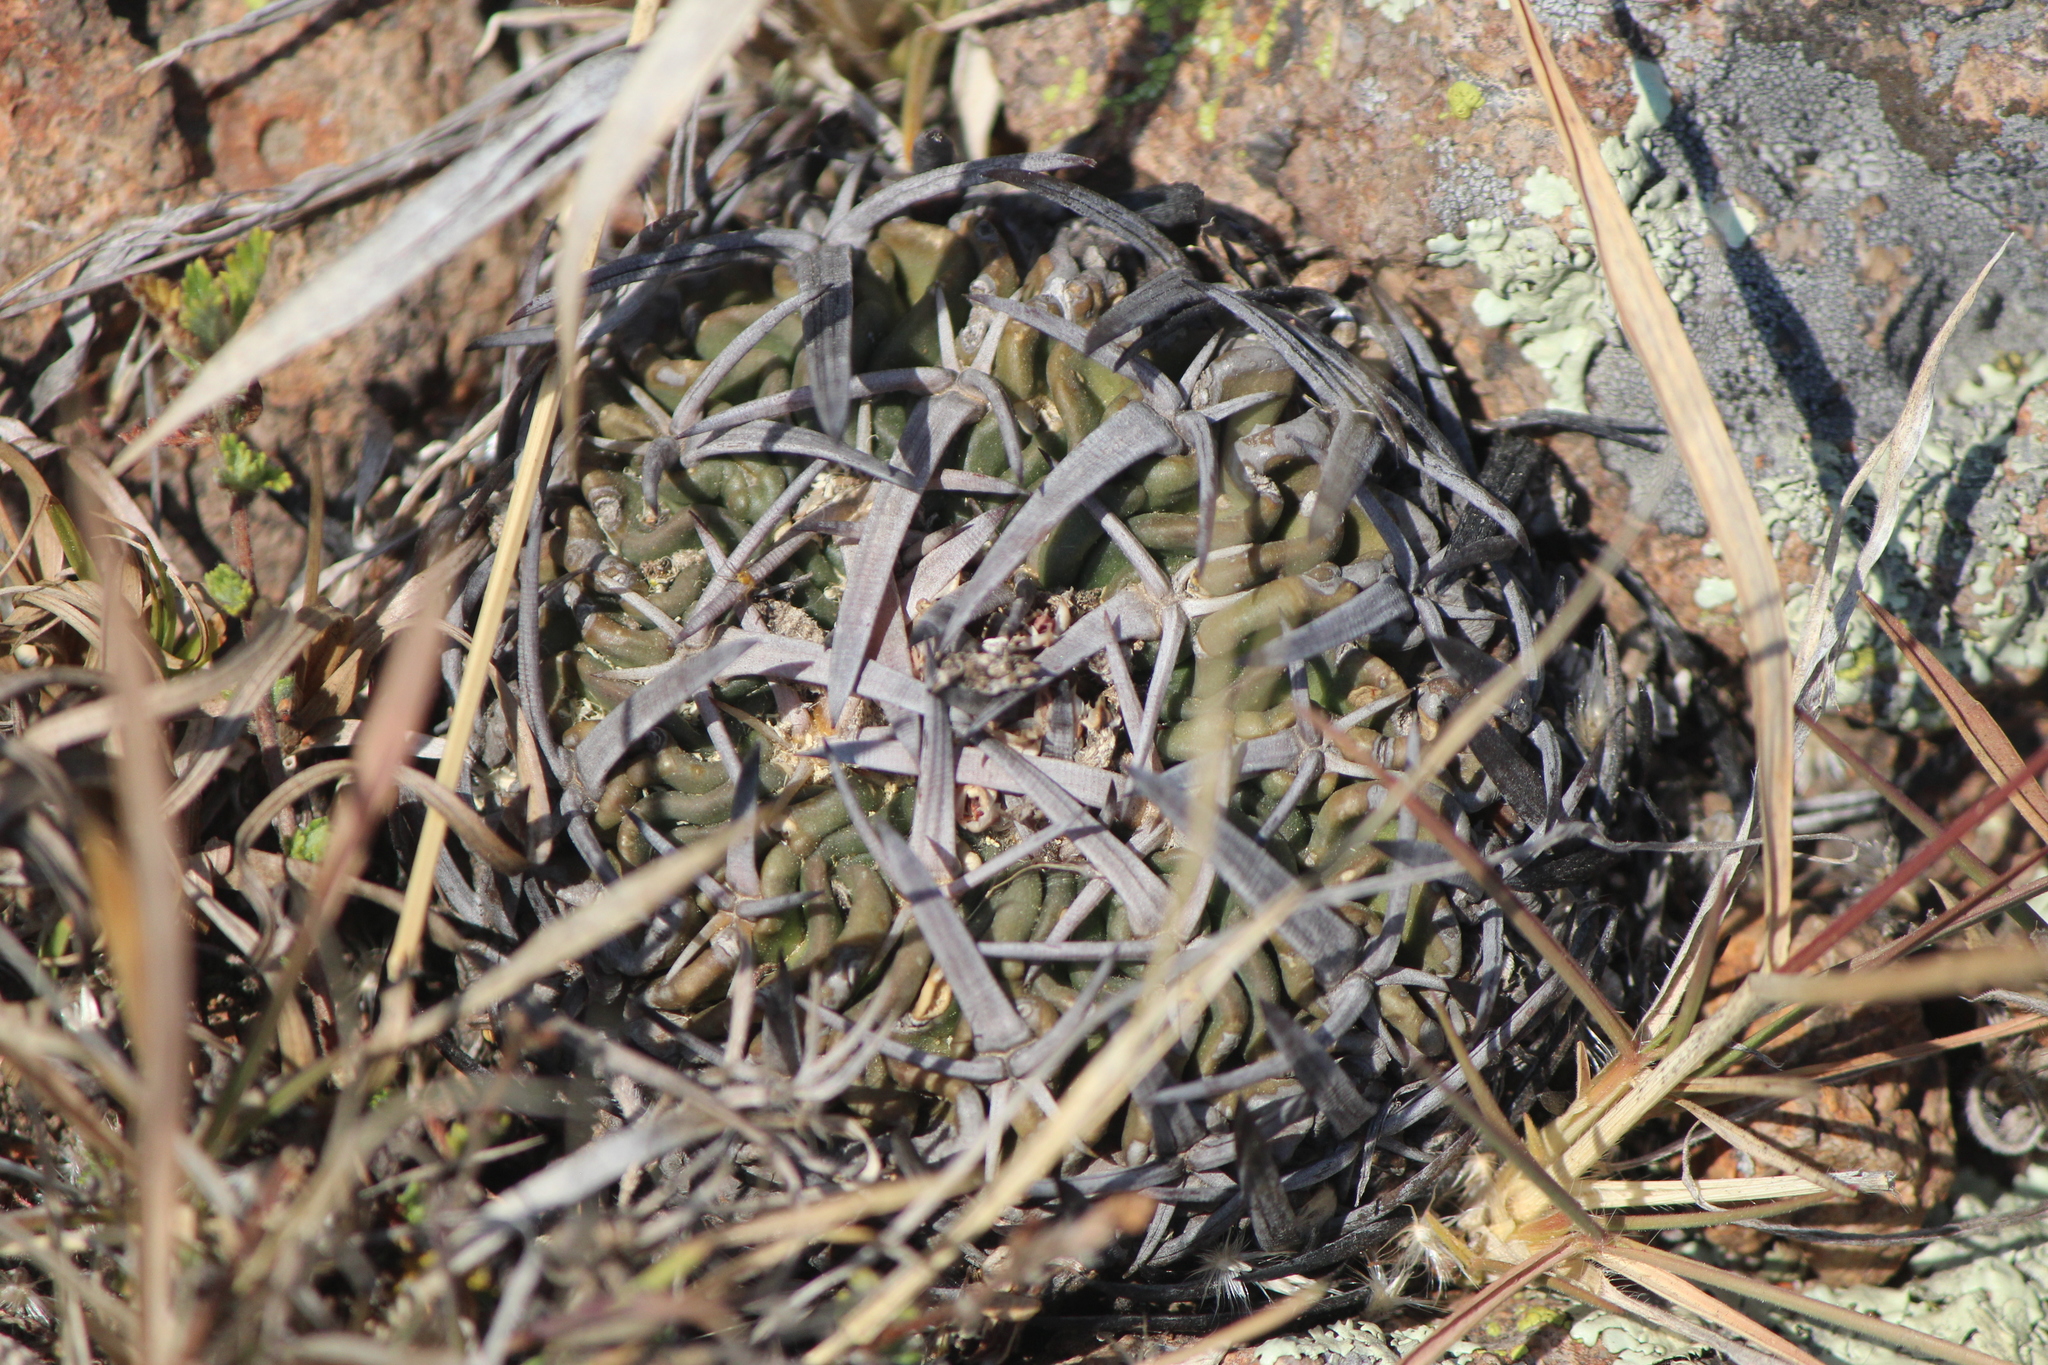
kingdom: Plantae
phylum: Tracheophyta
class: Magnoliopsida
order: Caryophyllales
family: Cactaceae
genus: Stenocactus
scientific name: Stenocactus obvallatus
